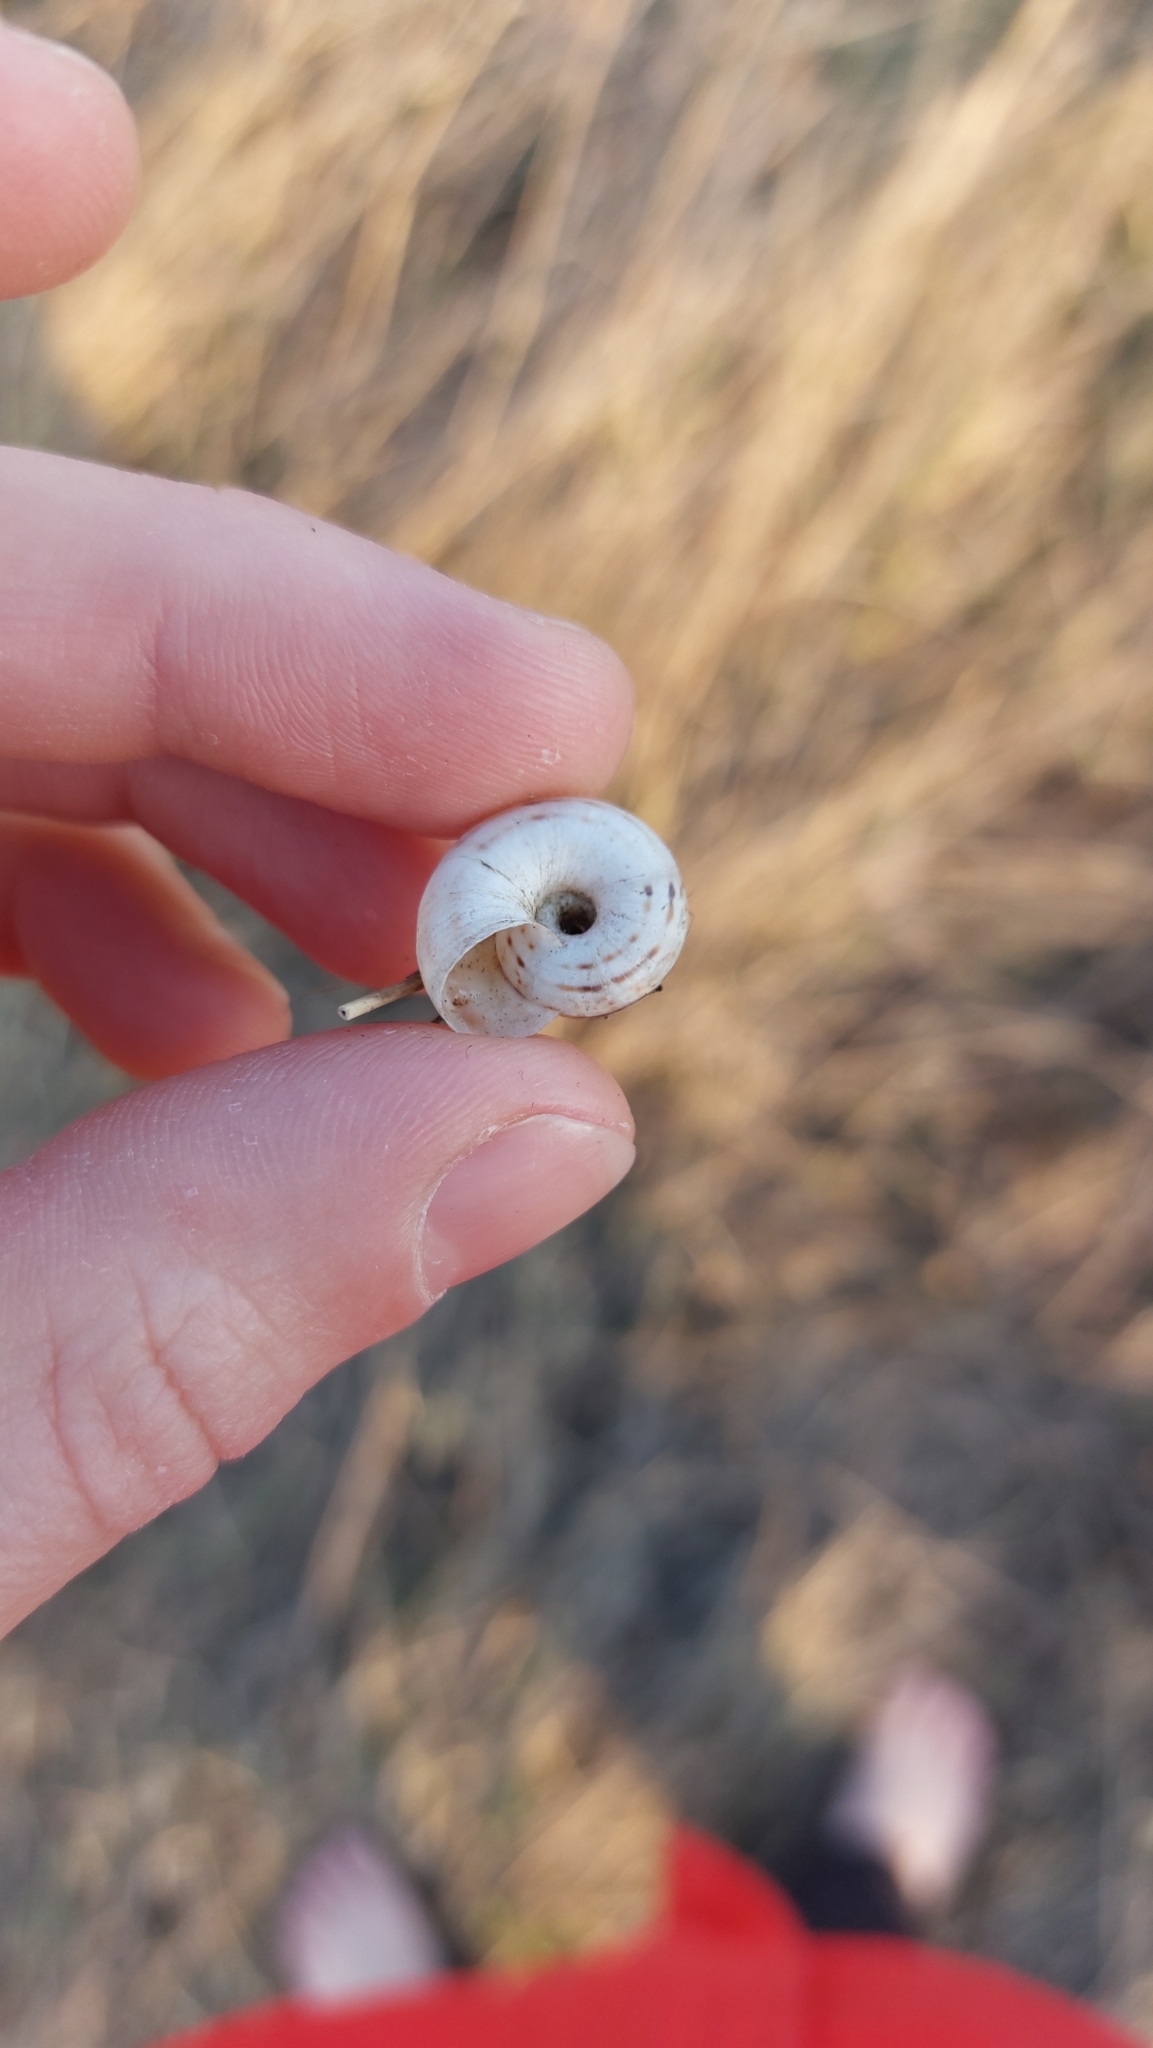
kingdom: Animalia
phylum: Mollusca
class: Gastropoda
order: Stylommatophora
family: Geomitridae
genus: Xerolenta
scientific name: Xerolenta obvia
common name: White heath snail
